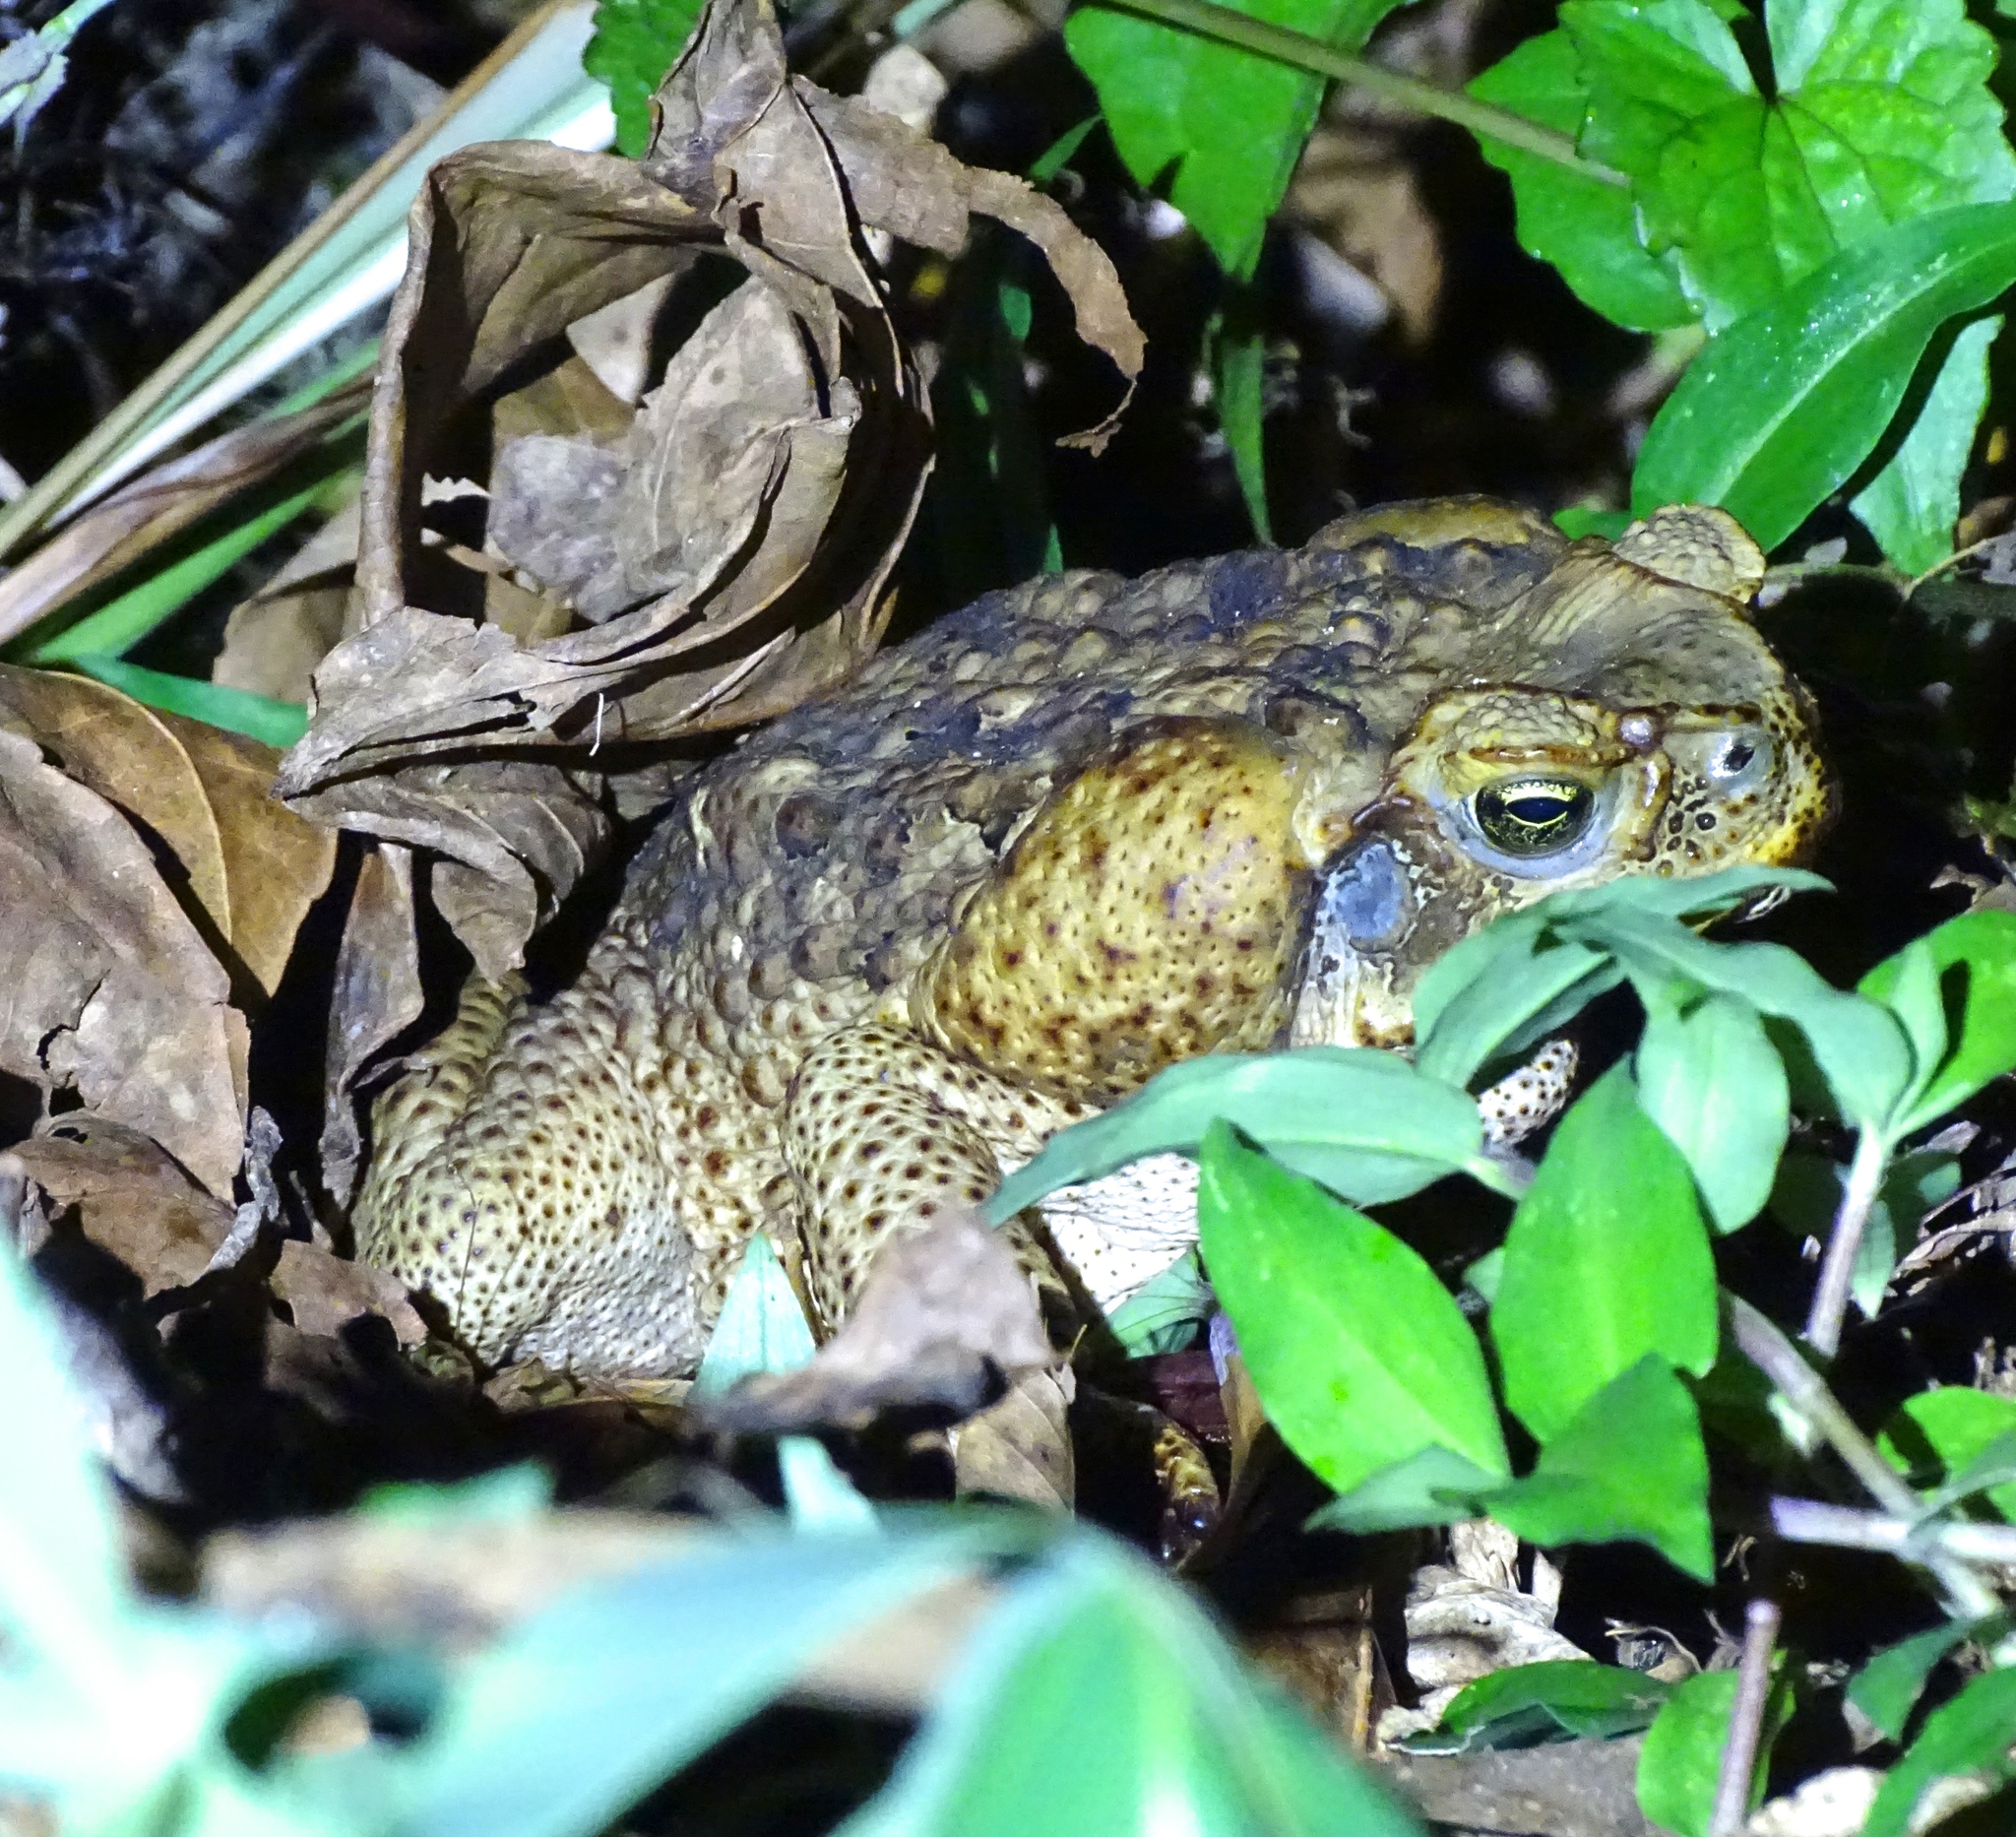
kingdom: Animalia
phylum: Chordata
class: Amphibia
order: Anura
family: Bufonidae
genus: Rhinella
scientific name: Rhinella marina
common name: Cane toad
